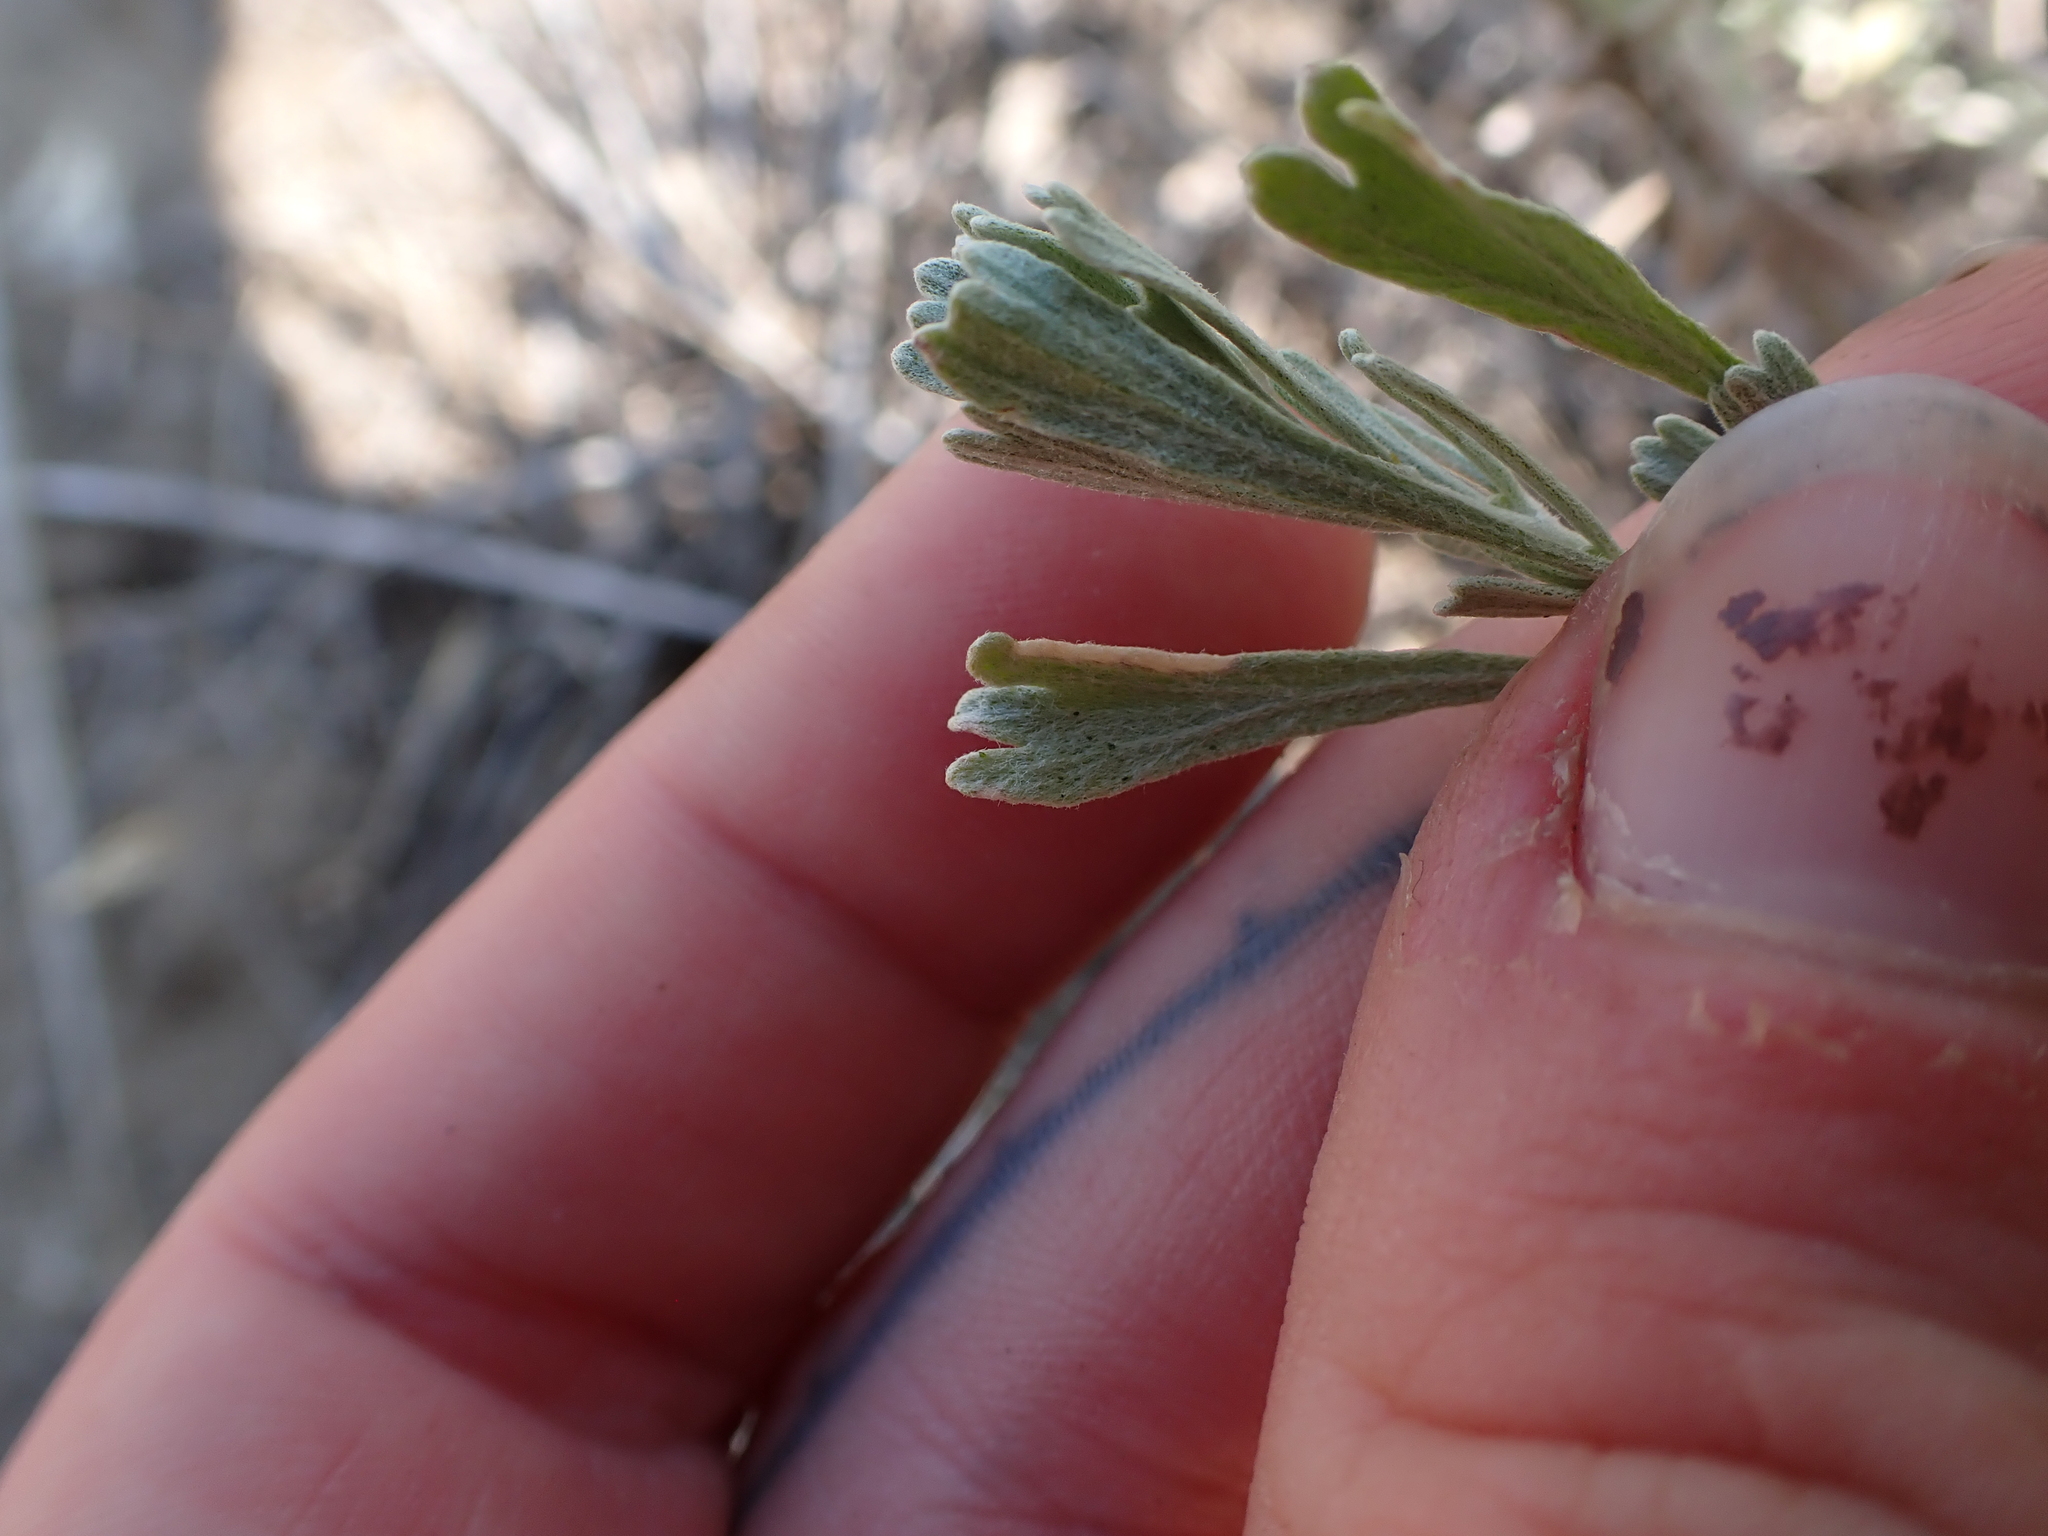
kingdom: Plantae
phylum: Tracheophyta
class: Magnoliopsida
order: Asterales
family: Asteraceae
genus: Artemisia
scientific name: Artemisia tridentata
